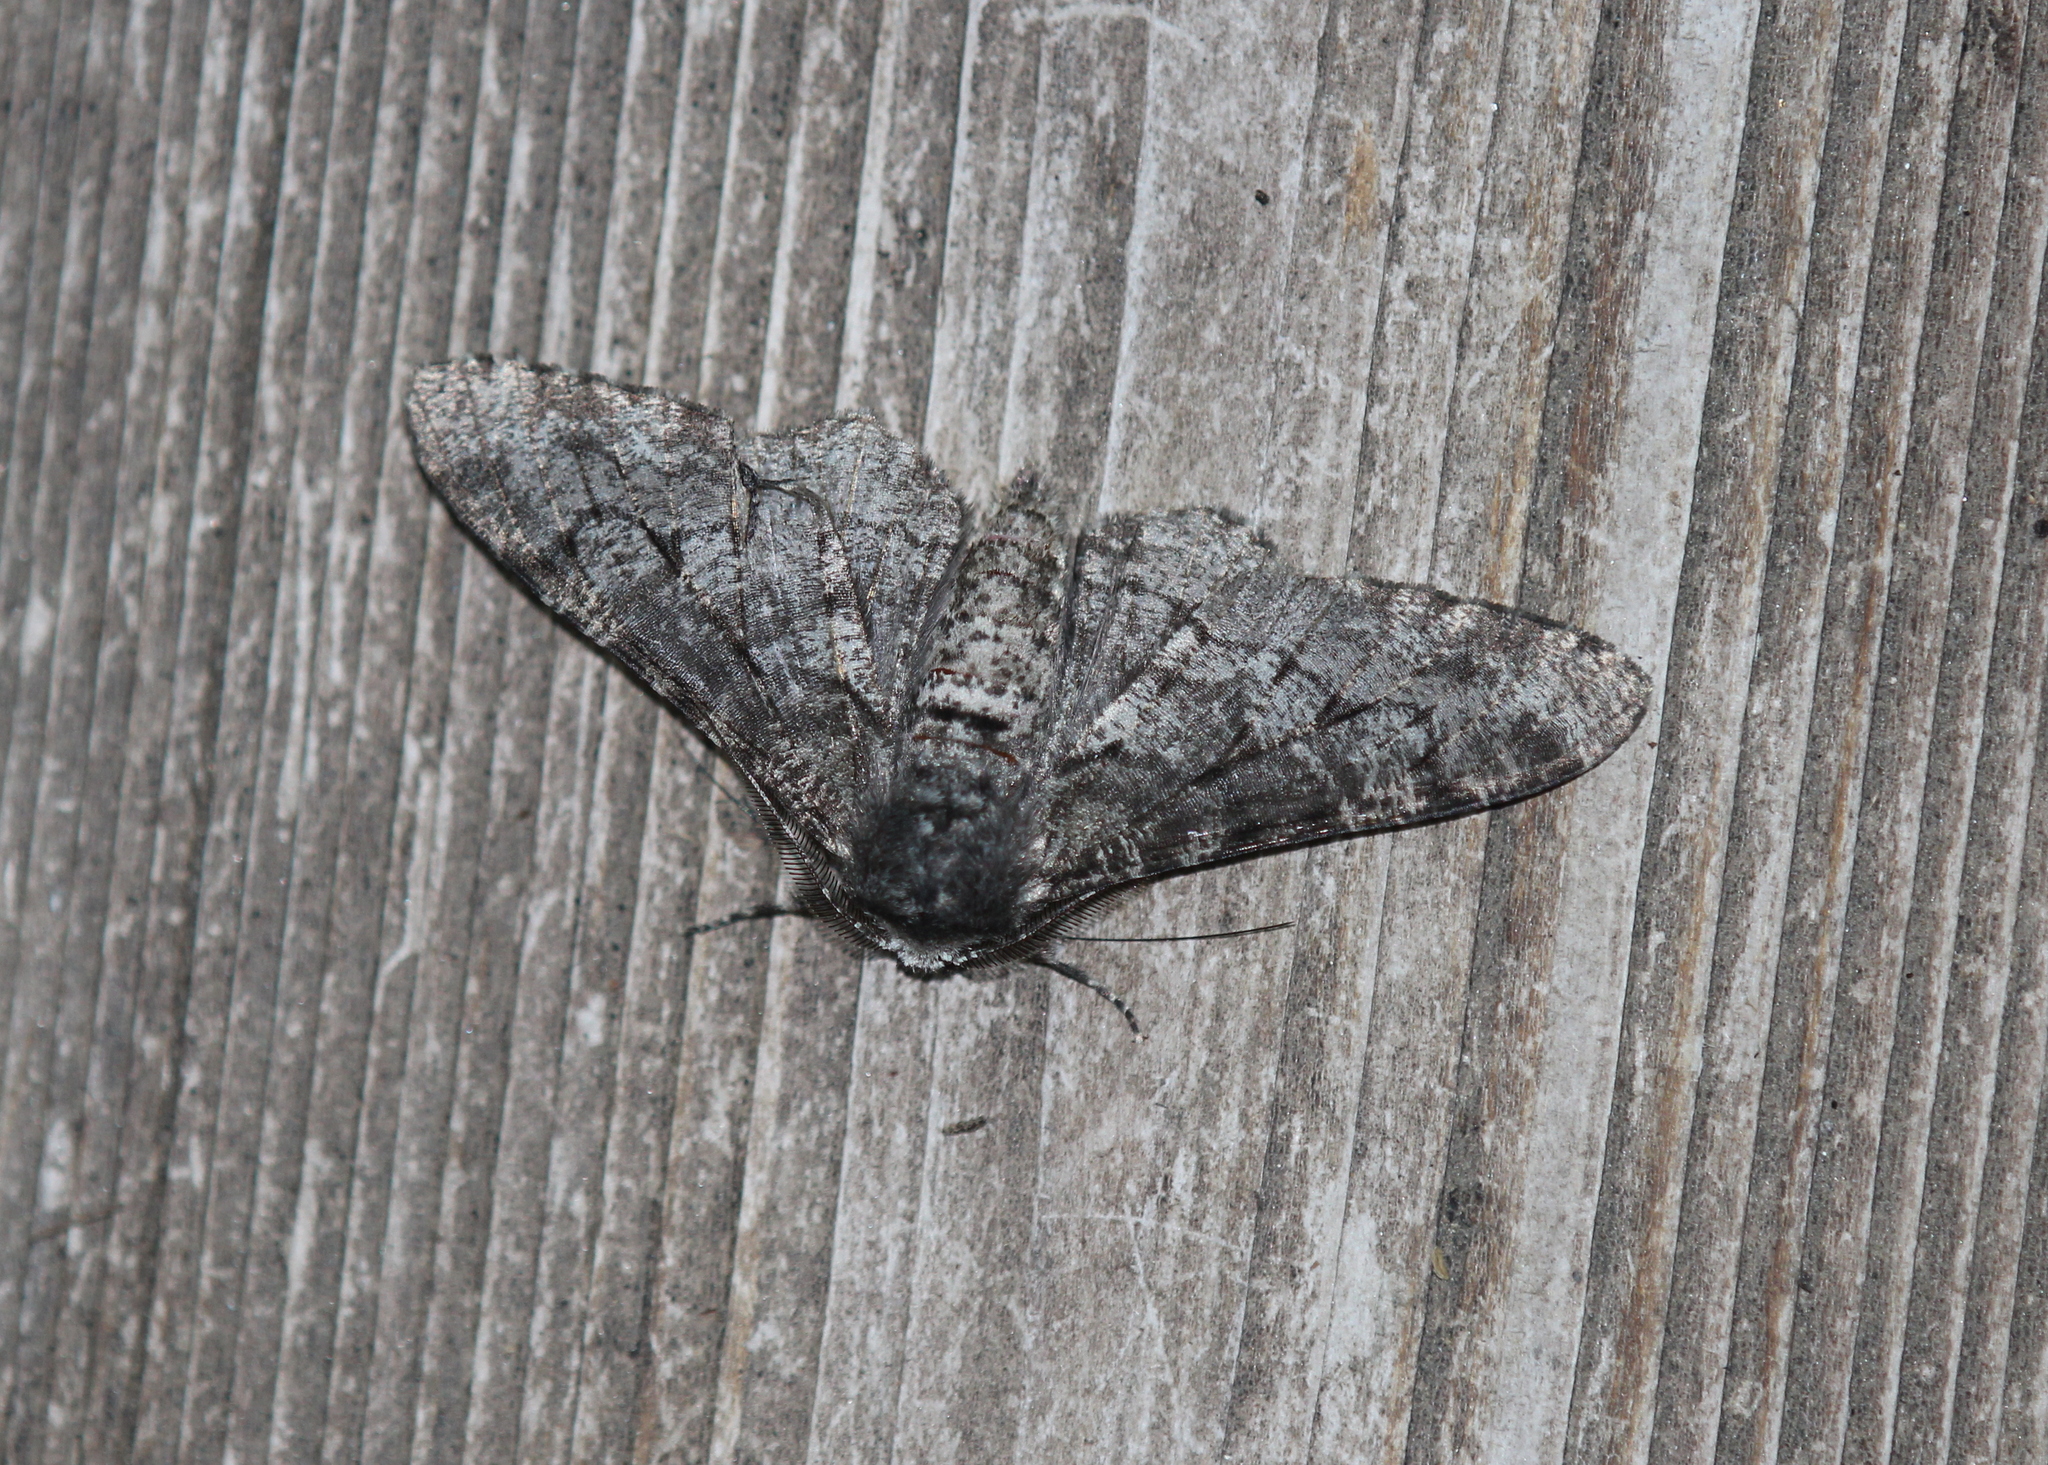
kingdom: Animalia
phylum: Arthropoda
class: Insecta
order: Lepidoptera
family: Geometridae
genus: Biston
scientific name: Biston betularia
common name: Peppered moth
